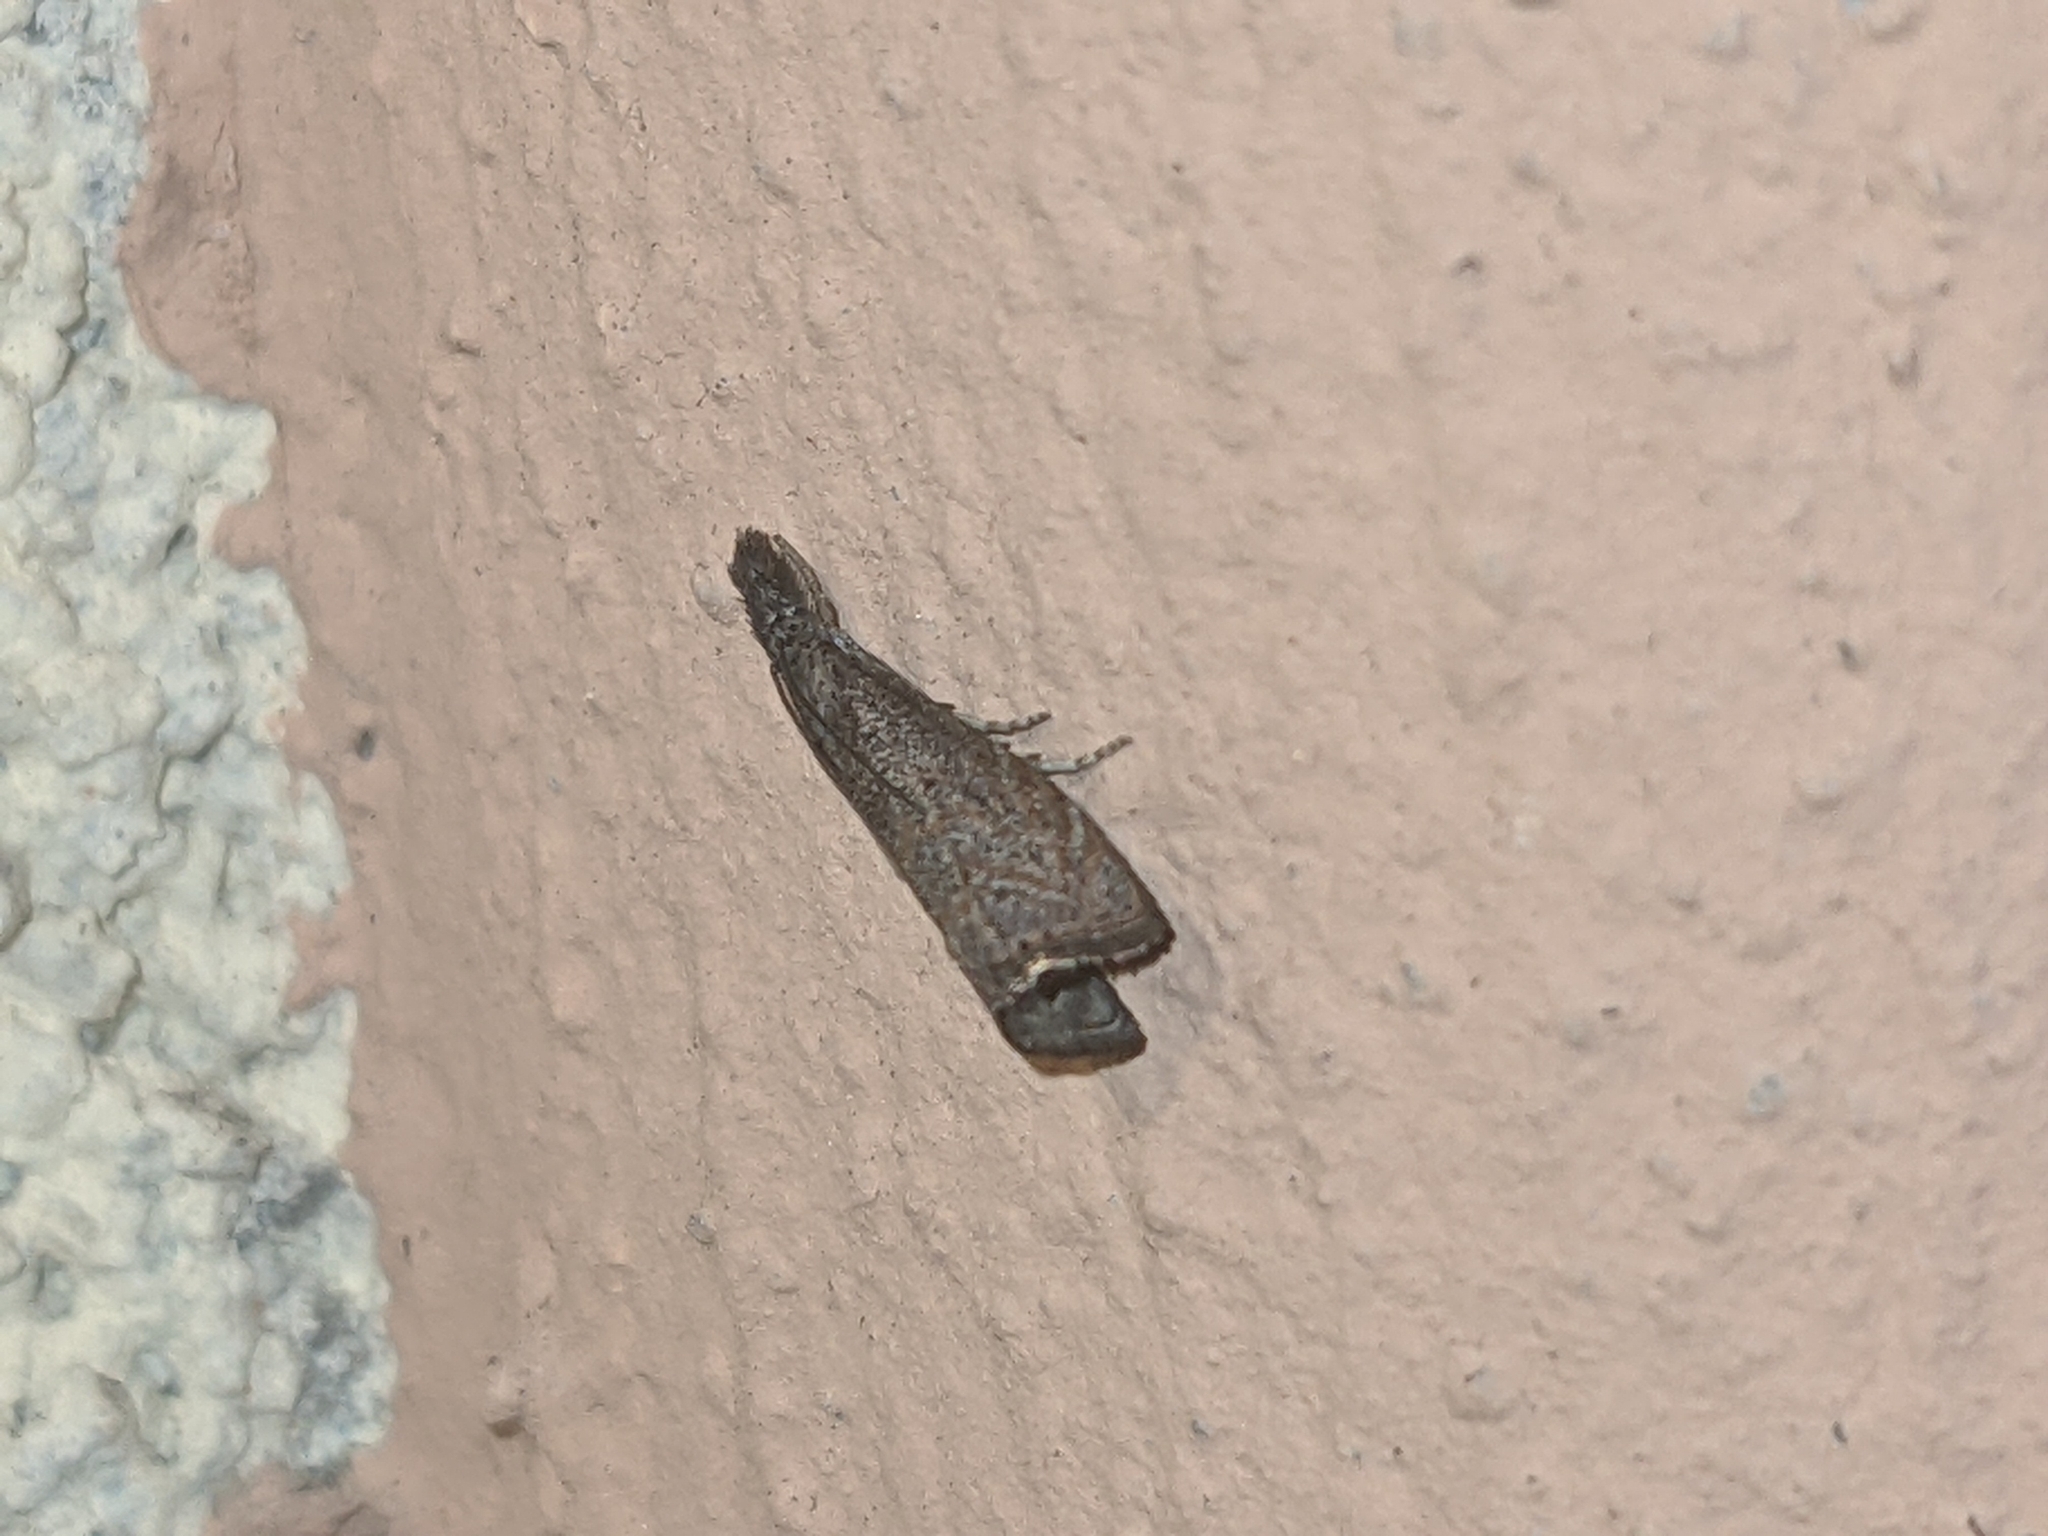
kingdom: Animalia
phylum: Arthropoda
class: Insecta
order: Lepidoptera
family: Crambidae
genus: Platytes
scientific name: Platytes cerusella
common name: Little grass-veneer
